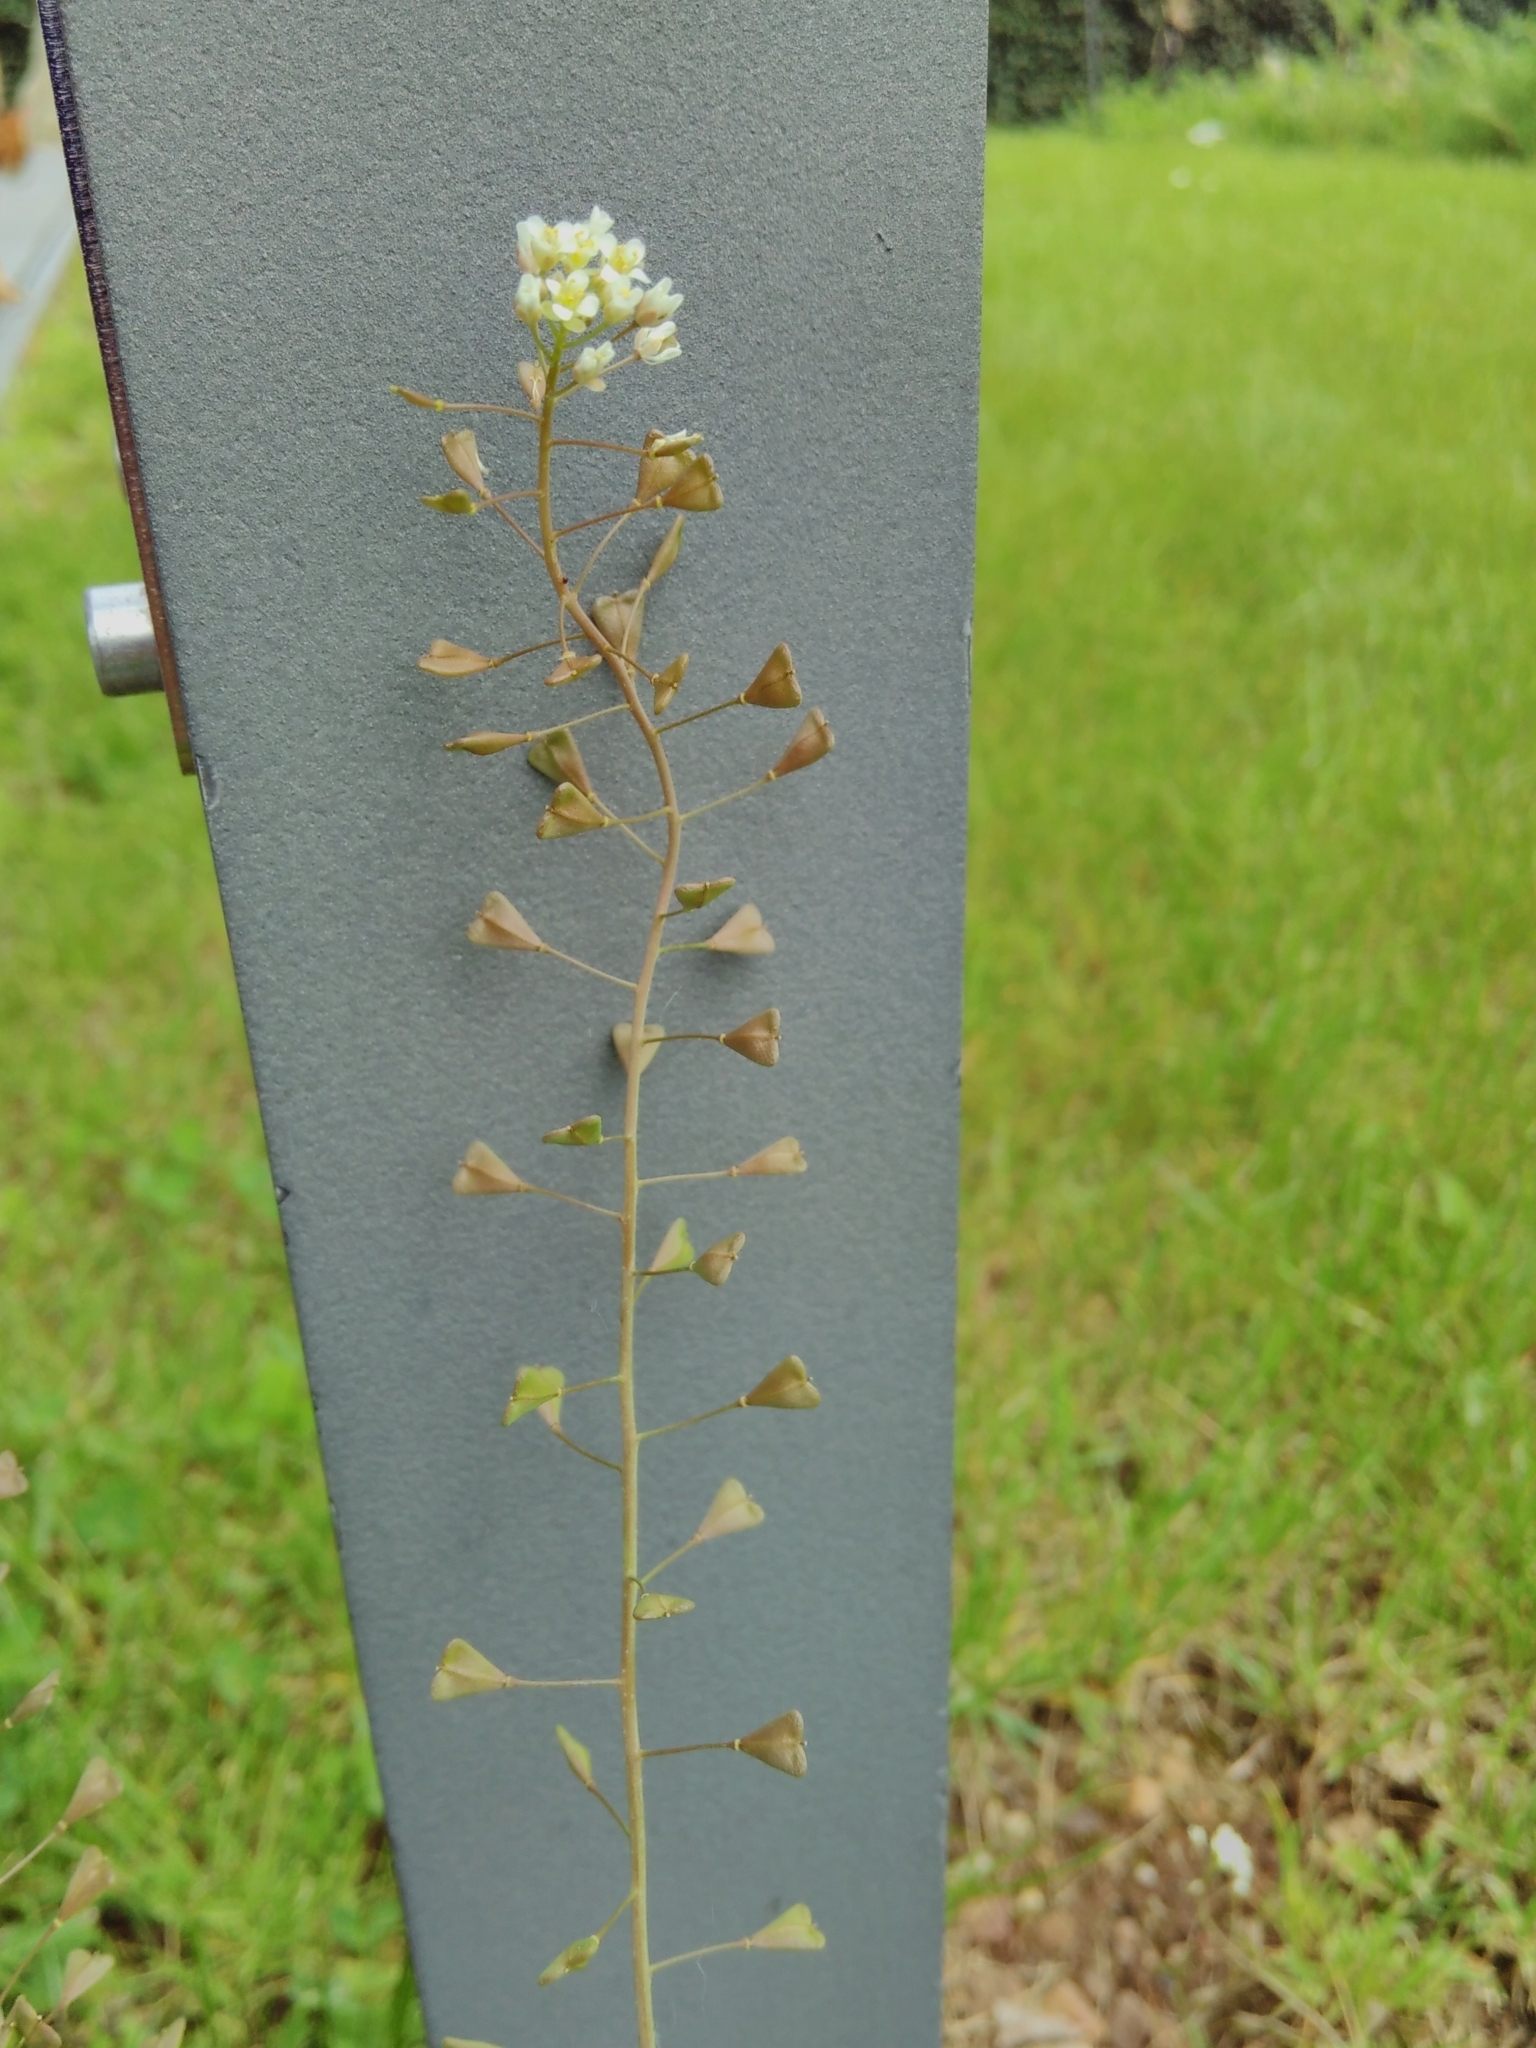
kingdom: Plantae
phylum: Tracheophyta
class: Magnoliopsida
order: Brassicales
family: Brassicaceae
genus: Capsella
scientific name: Capsella bursa-pastoris
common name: Shepherd's purse
